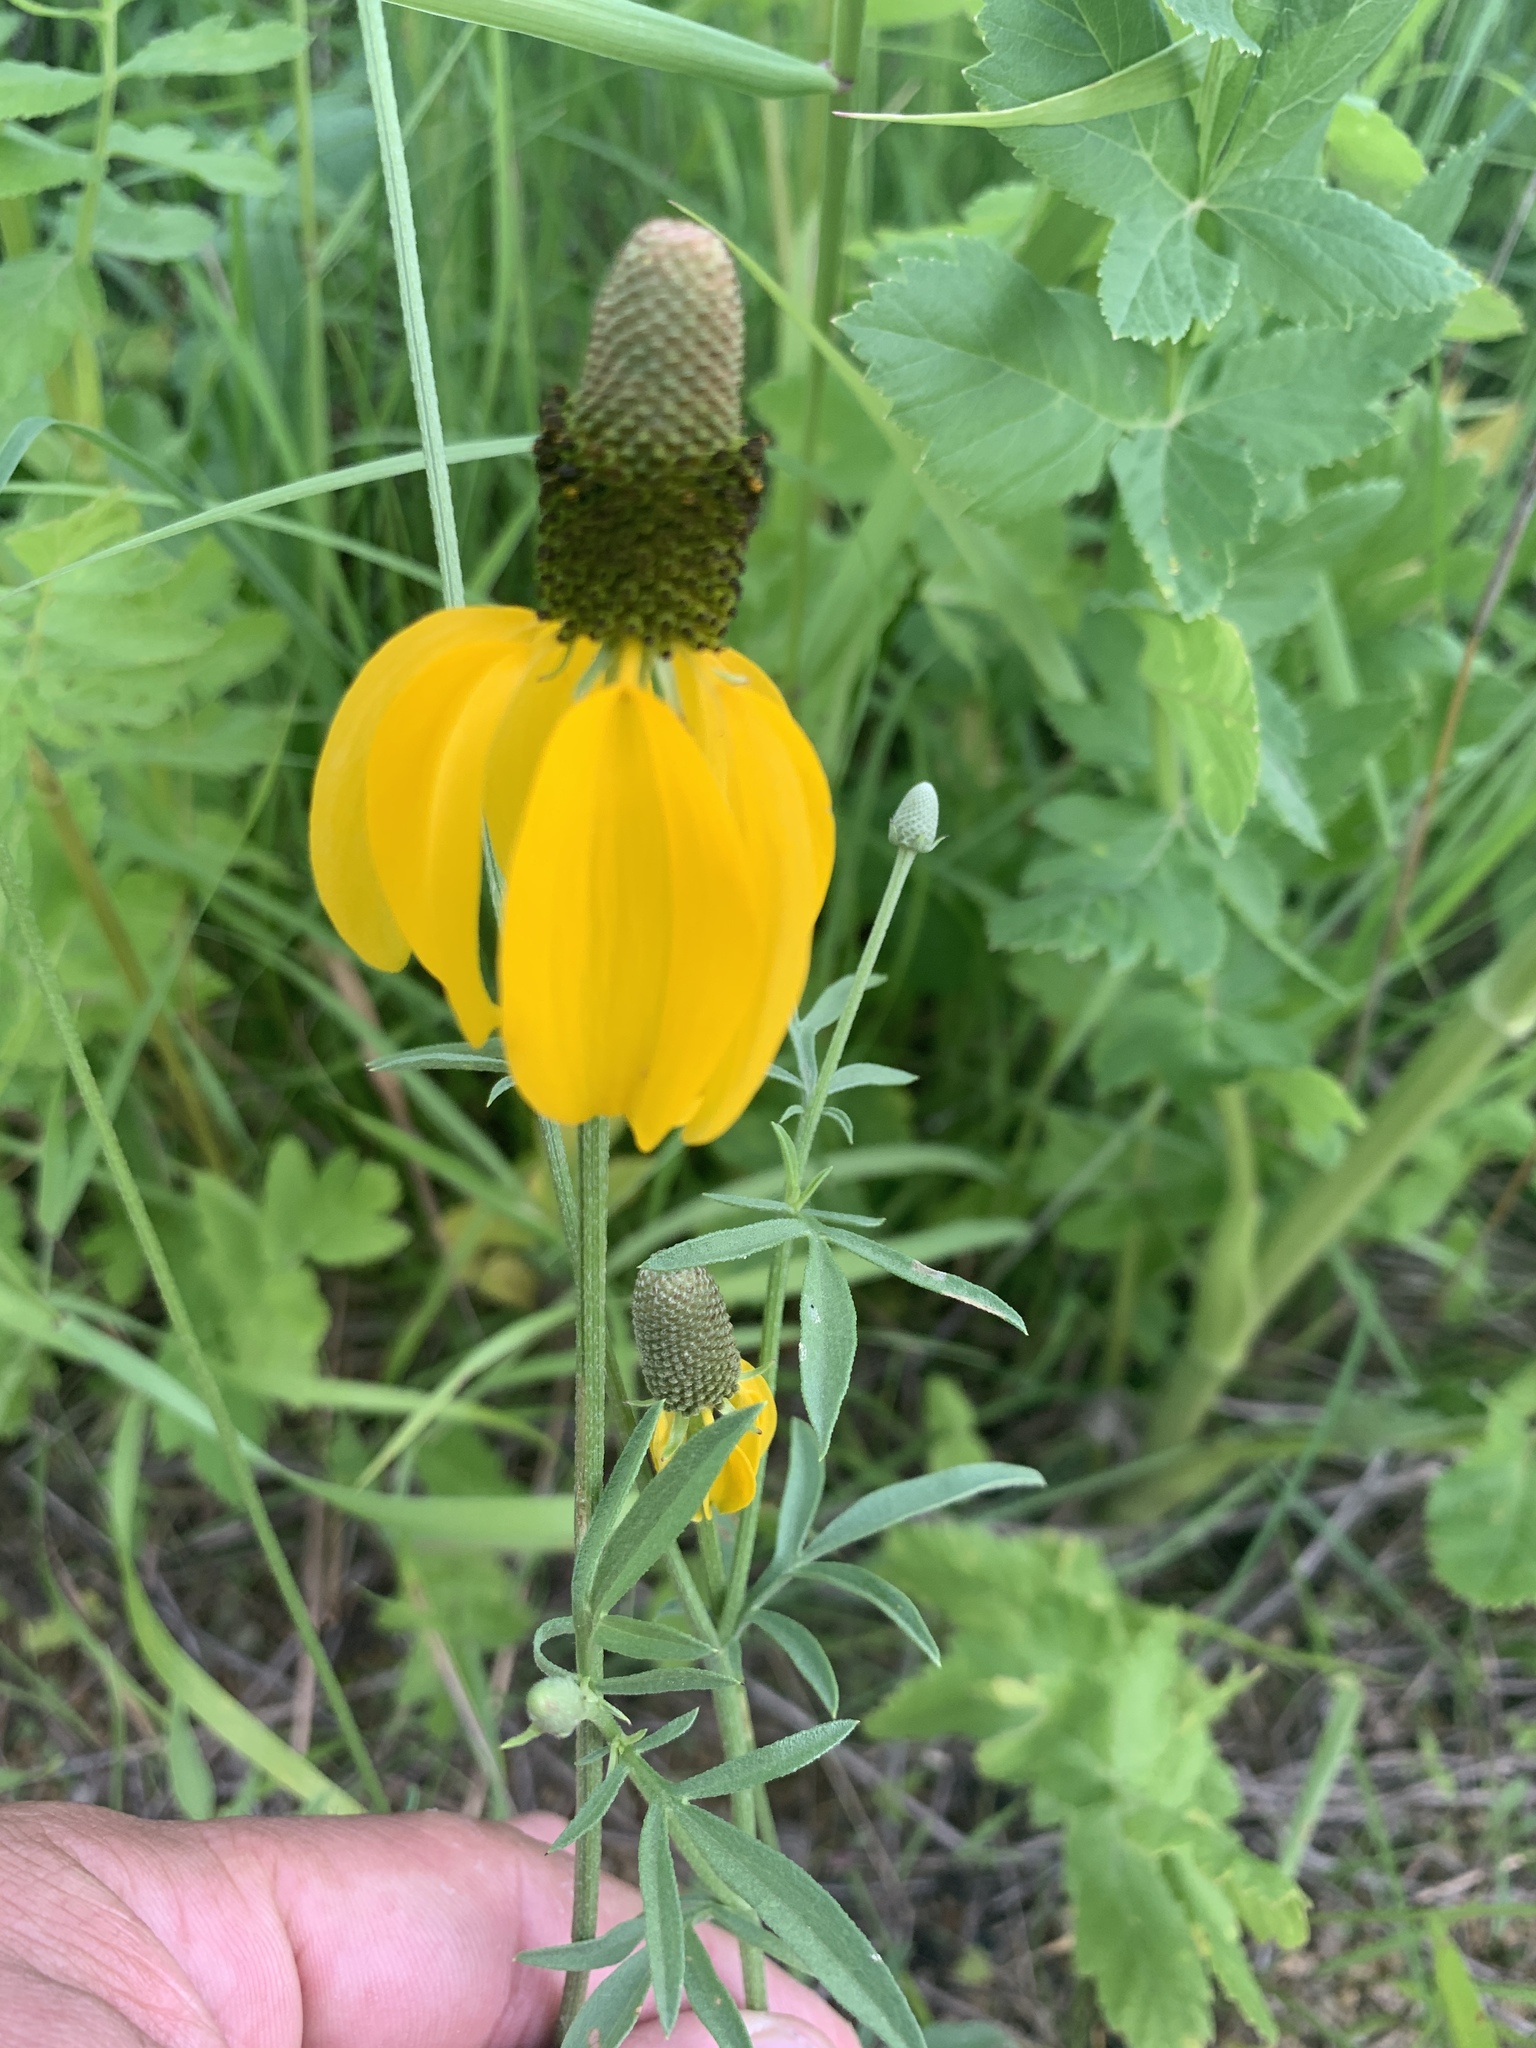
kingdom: Plantae
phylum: Tracheophyta
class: Magnoliopsida
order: Asterales
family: Asteraceae
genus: Ratibida
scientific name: Ratibida columnifera
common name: Prairie coneflower
